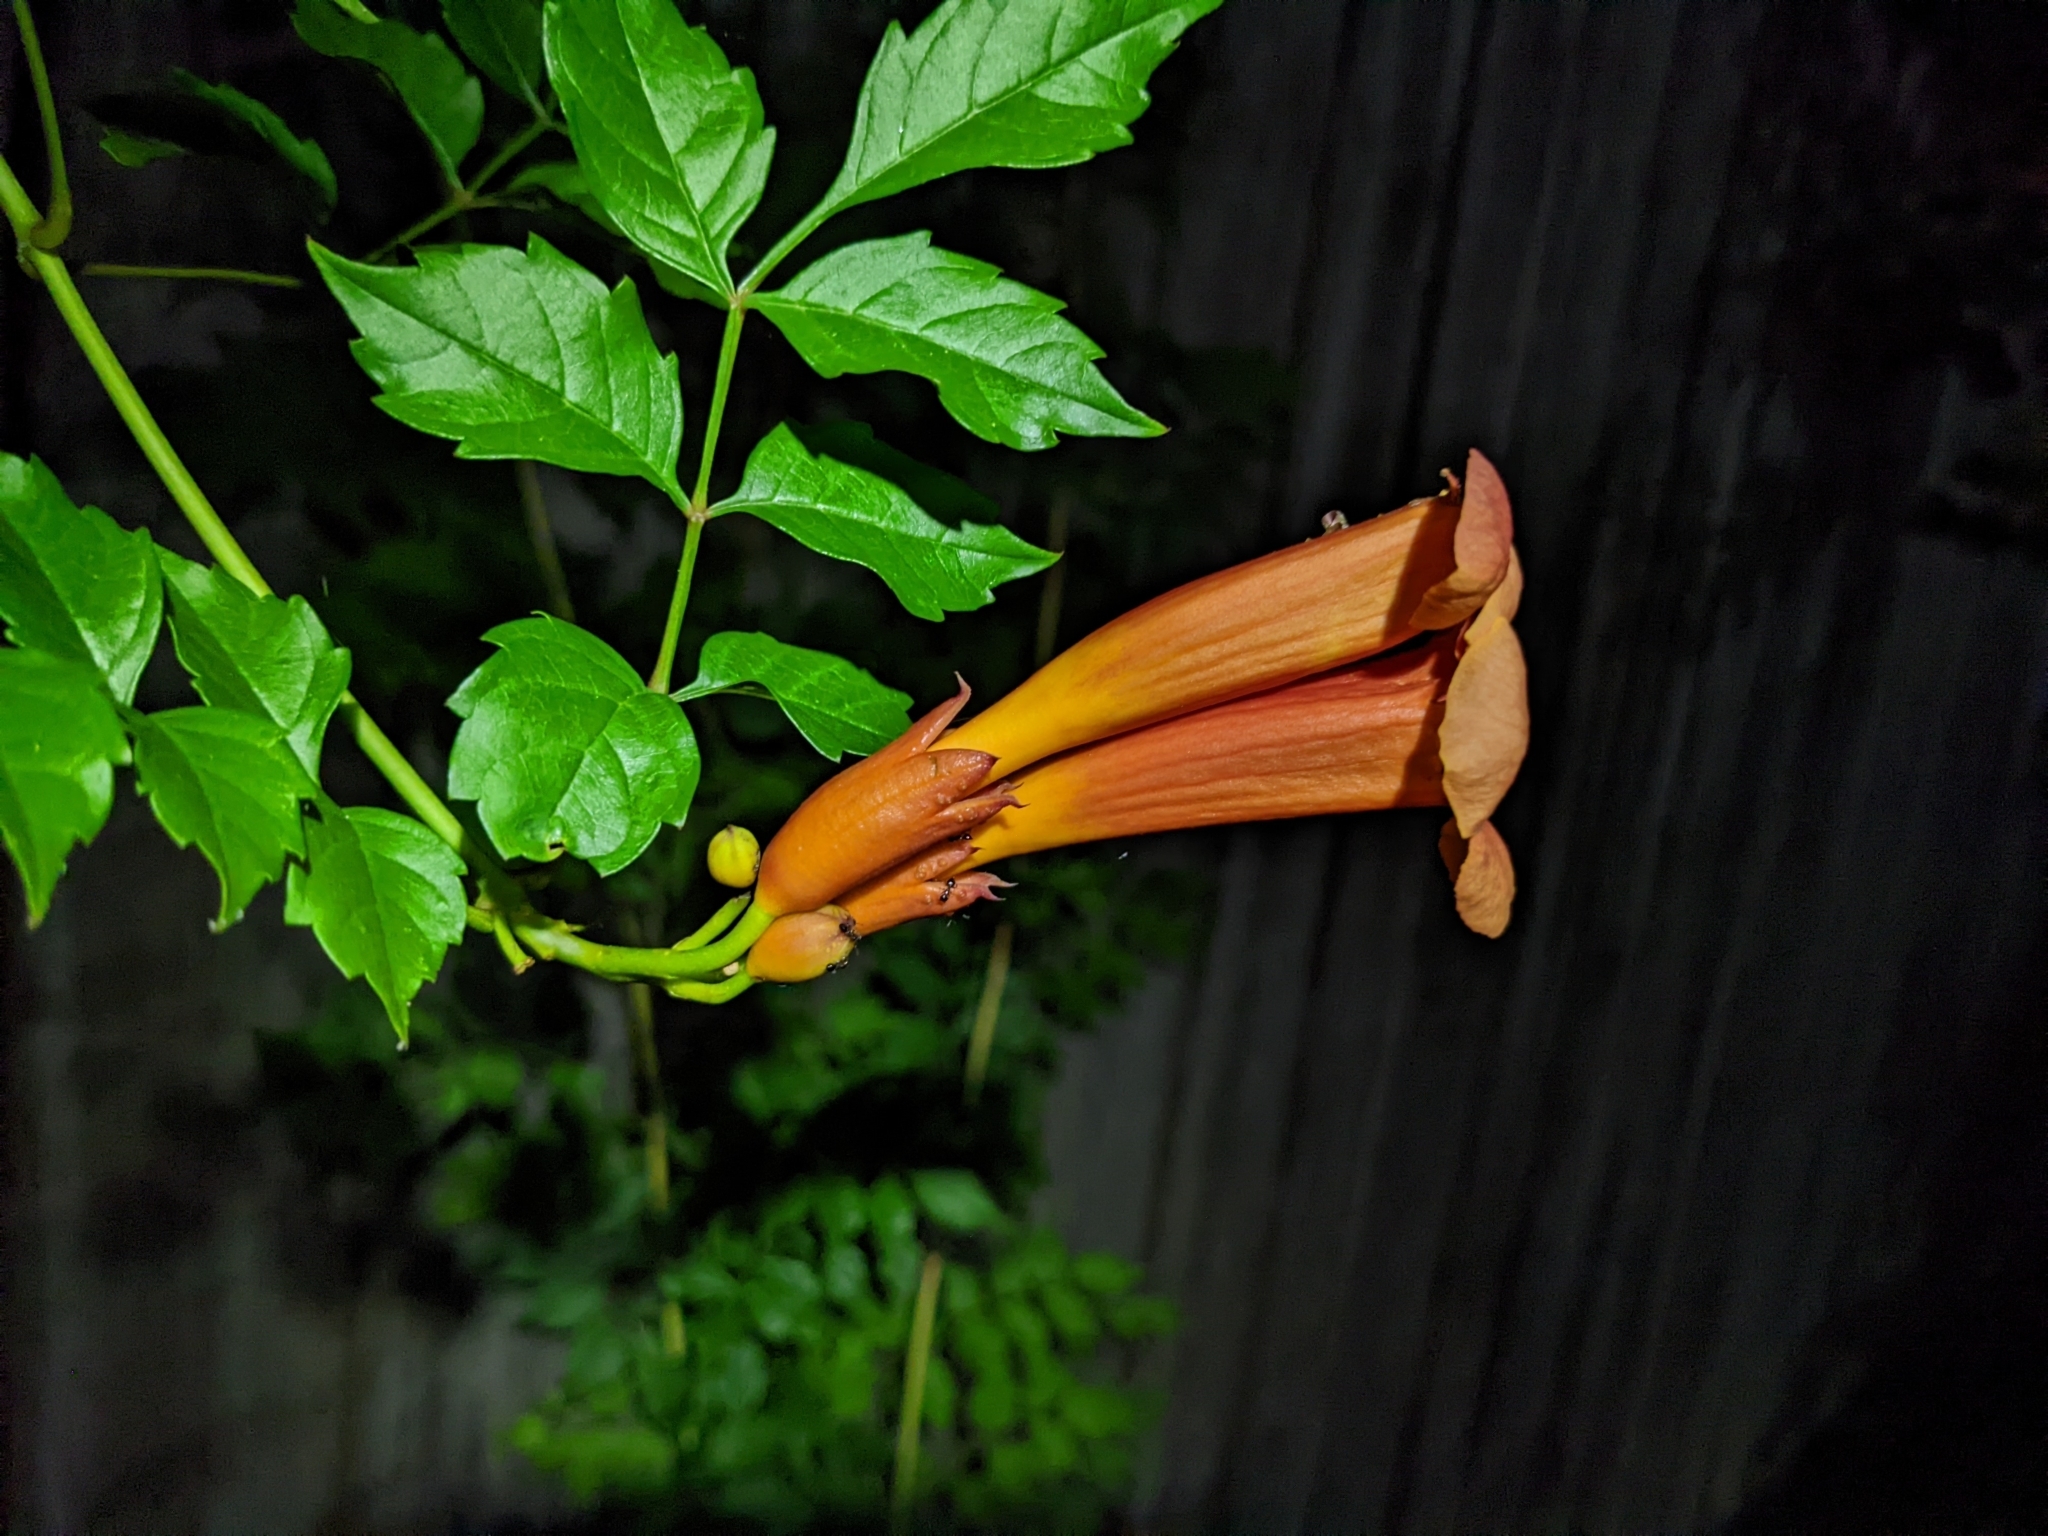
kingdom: Plantae
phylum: Tracheophyta
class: Magnoliopsida
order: Lamiales
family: Bignoniaceae
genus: Campsis
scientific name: Campsis radicans
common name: Trumpet-creeper
